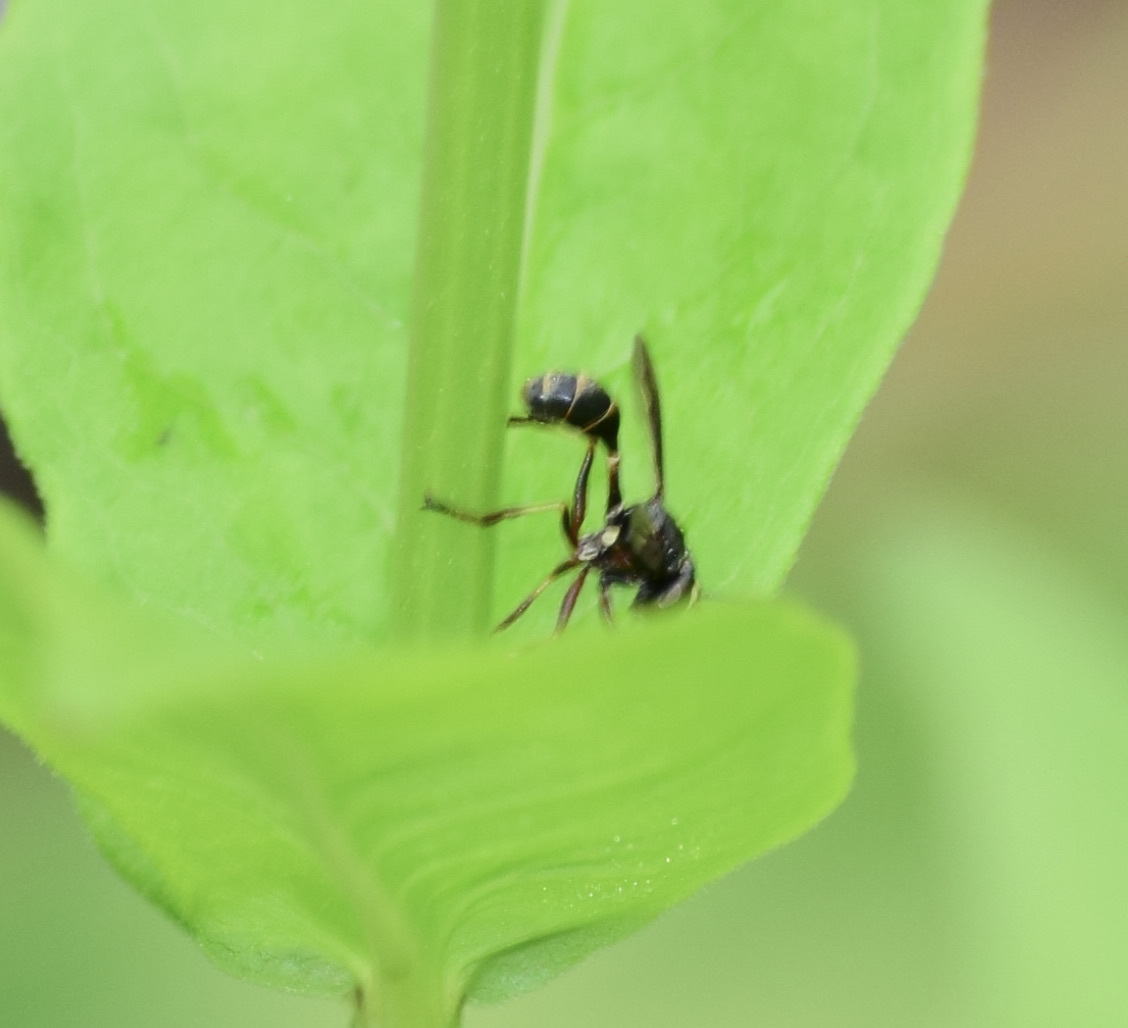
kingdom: Animalia
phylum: Arthropoda
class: Insecta
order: Diptera
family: Conopidae
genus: Physocephala
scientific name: Physocephala furcillata
